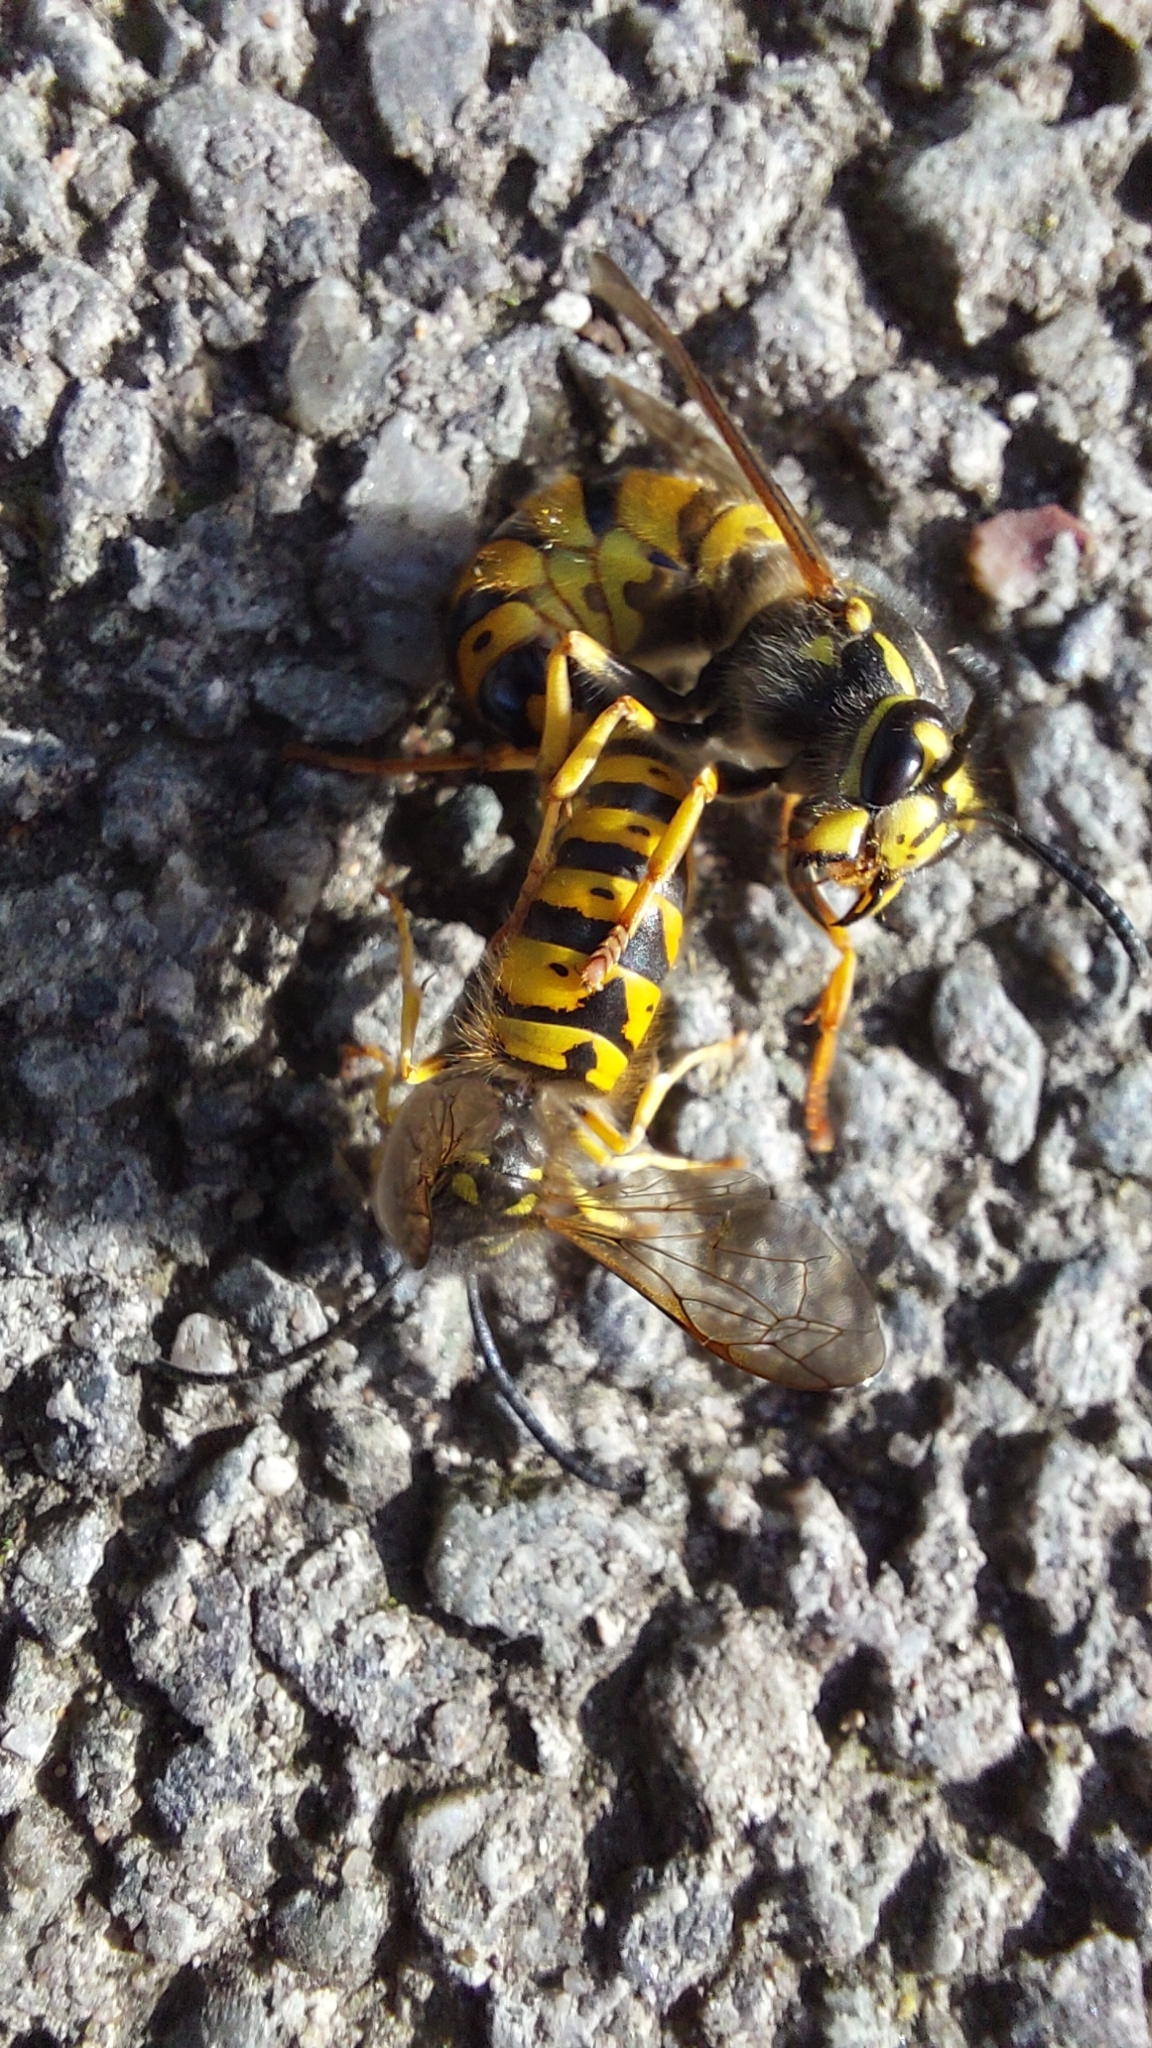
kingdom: Animalia
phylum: Arthropoda
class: Insecta
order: Hymenoptera
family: Vespidae
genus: Vespula
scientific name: Vespula germanica
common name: German wasp
